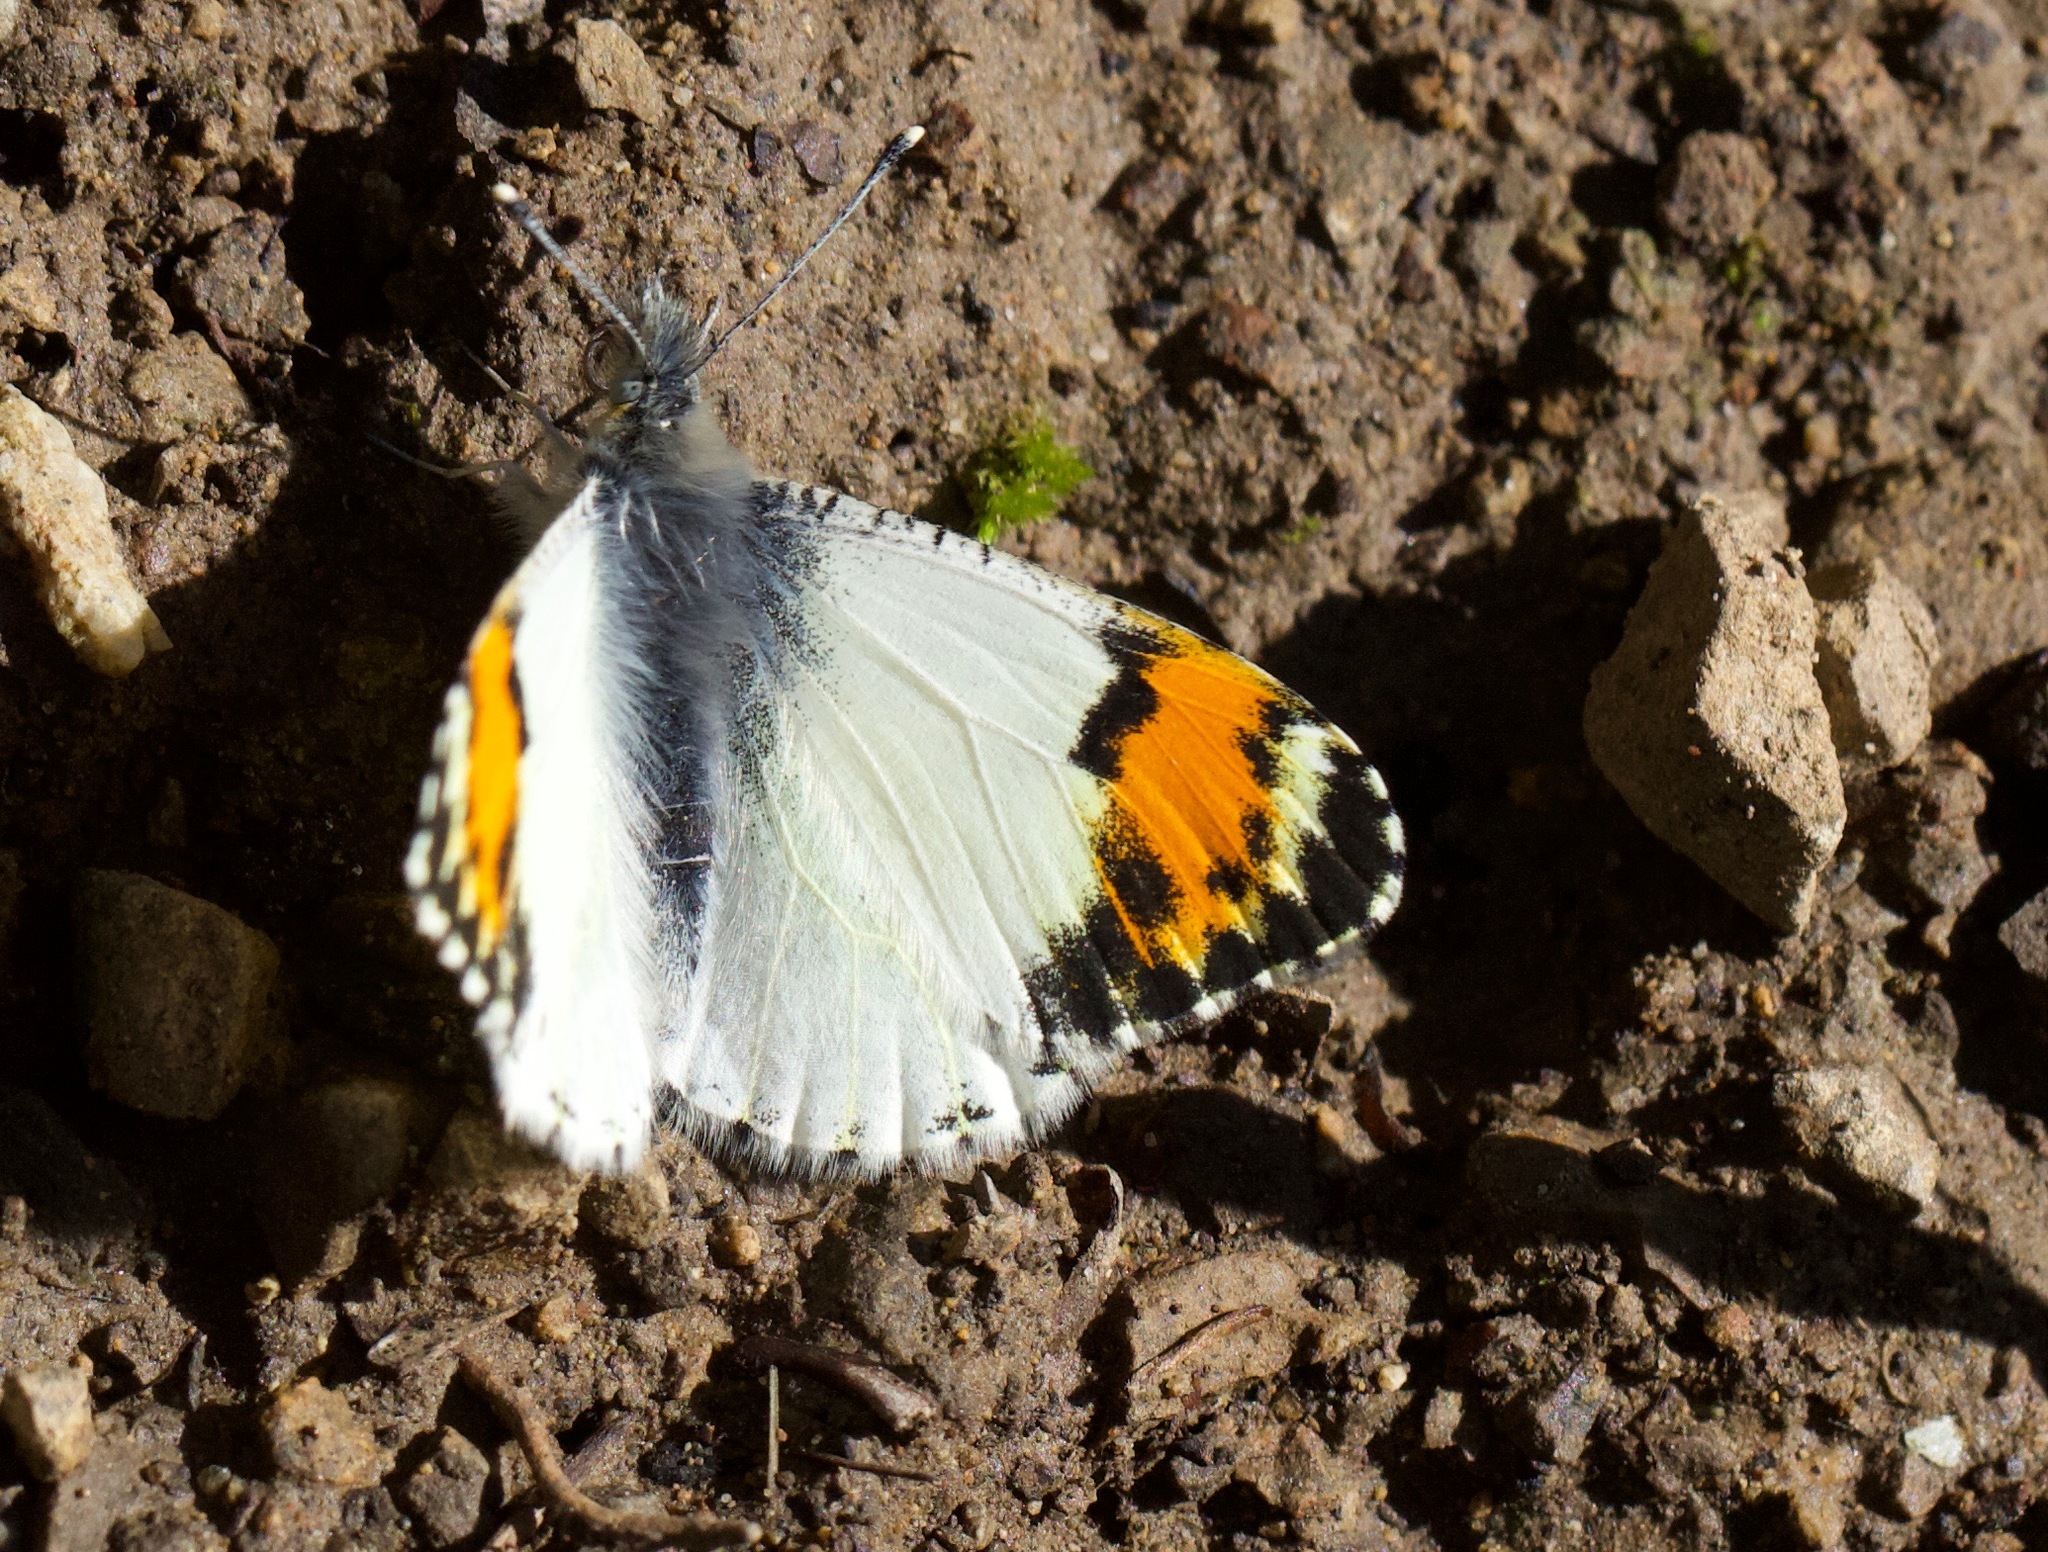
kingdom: Animalia
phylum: Arthropoda
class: Insecta
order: Lepidoptera
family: Pieridae
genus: Anthocharis
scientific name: Anthocharis sara
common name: Sara's orangetip
